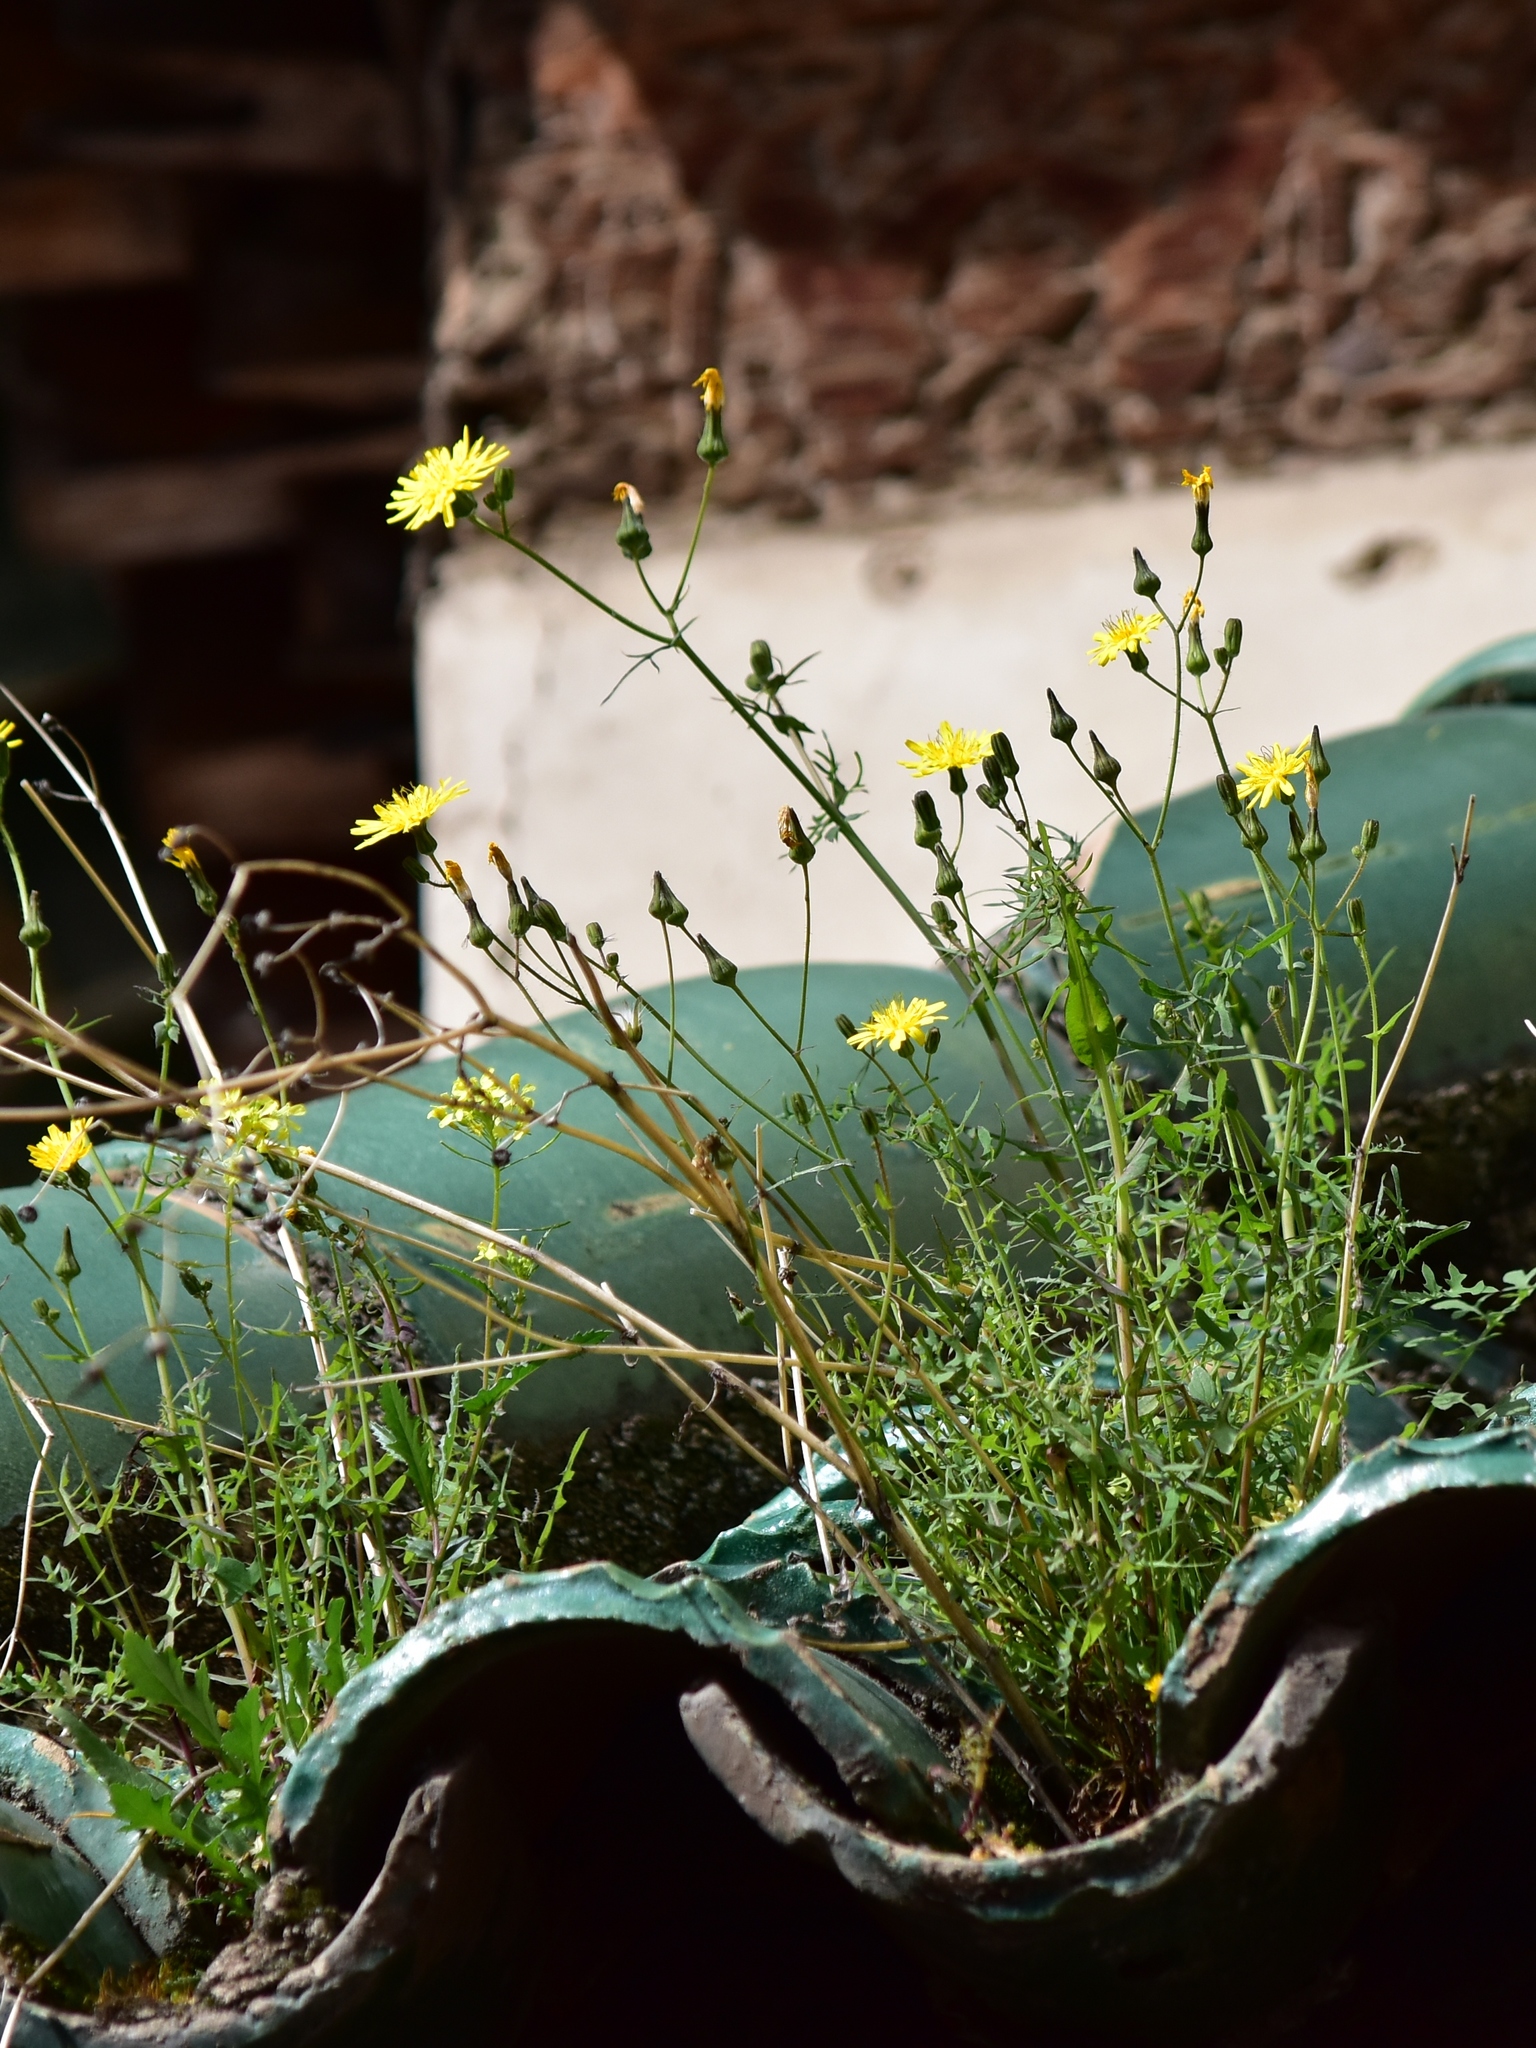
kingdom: Plantae
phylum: Tracheophyta
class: Magnoliopsida
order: Asterales
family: Asteraceae
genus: Sonchus
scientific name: Sonchus tenerrimus
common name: Clammy sowthistle
